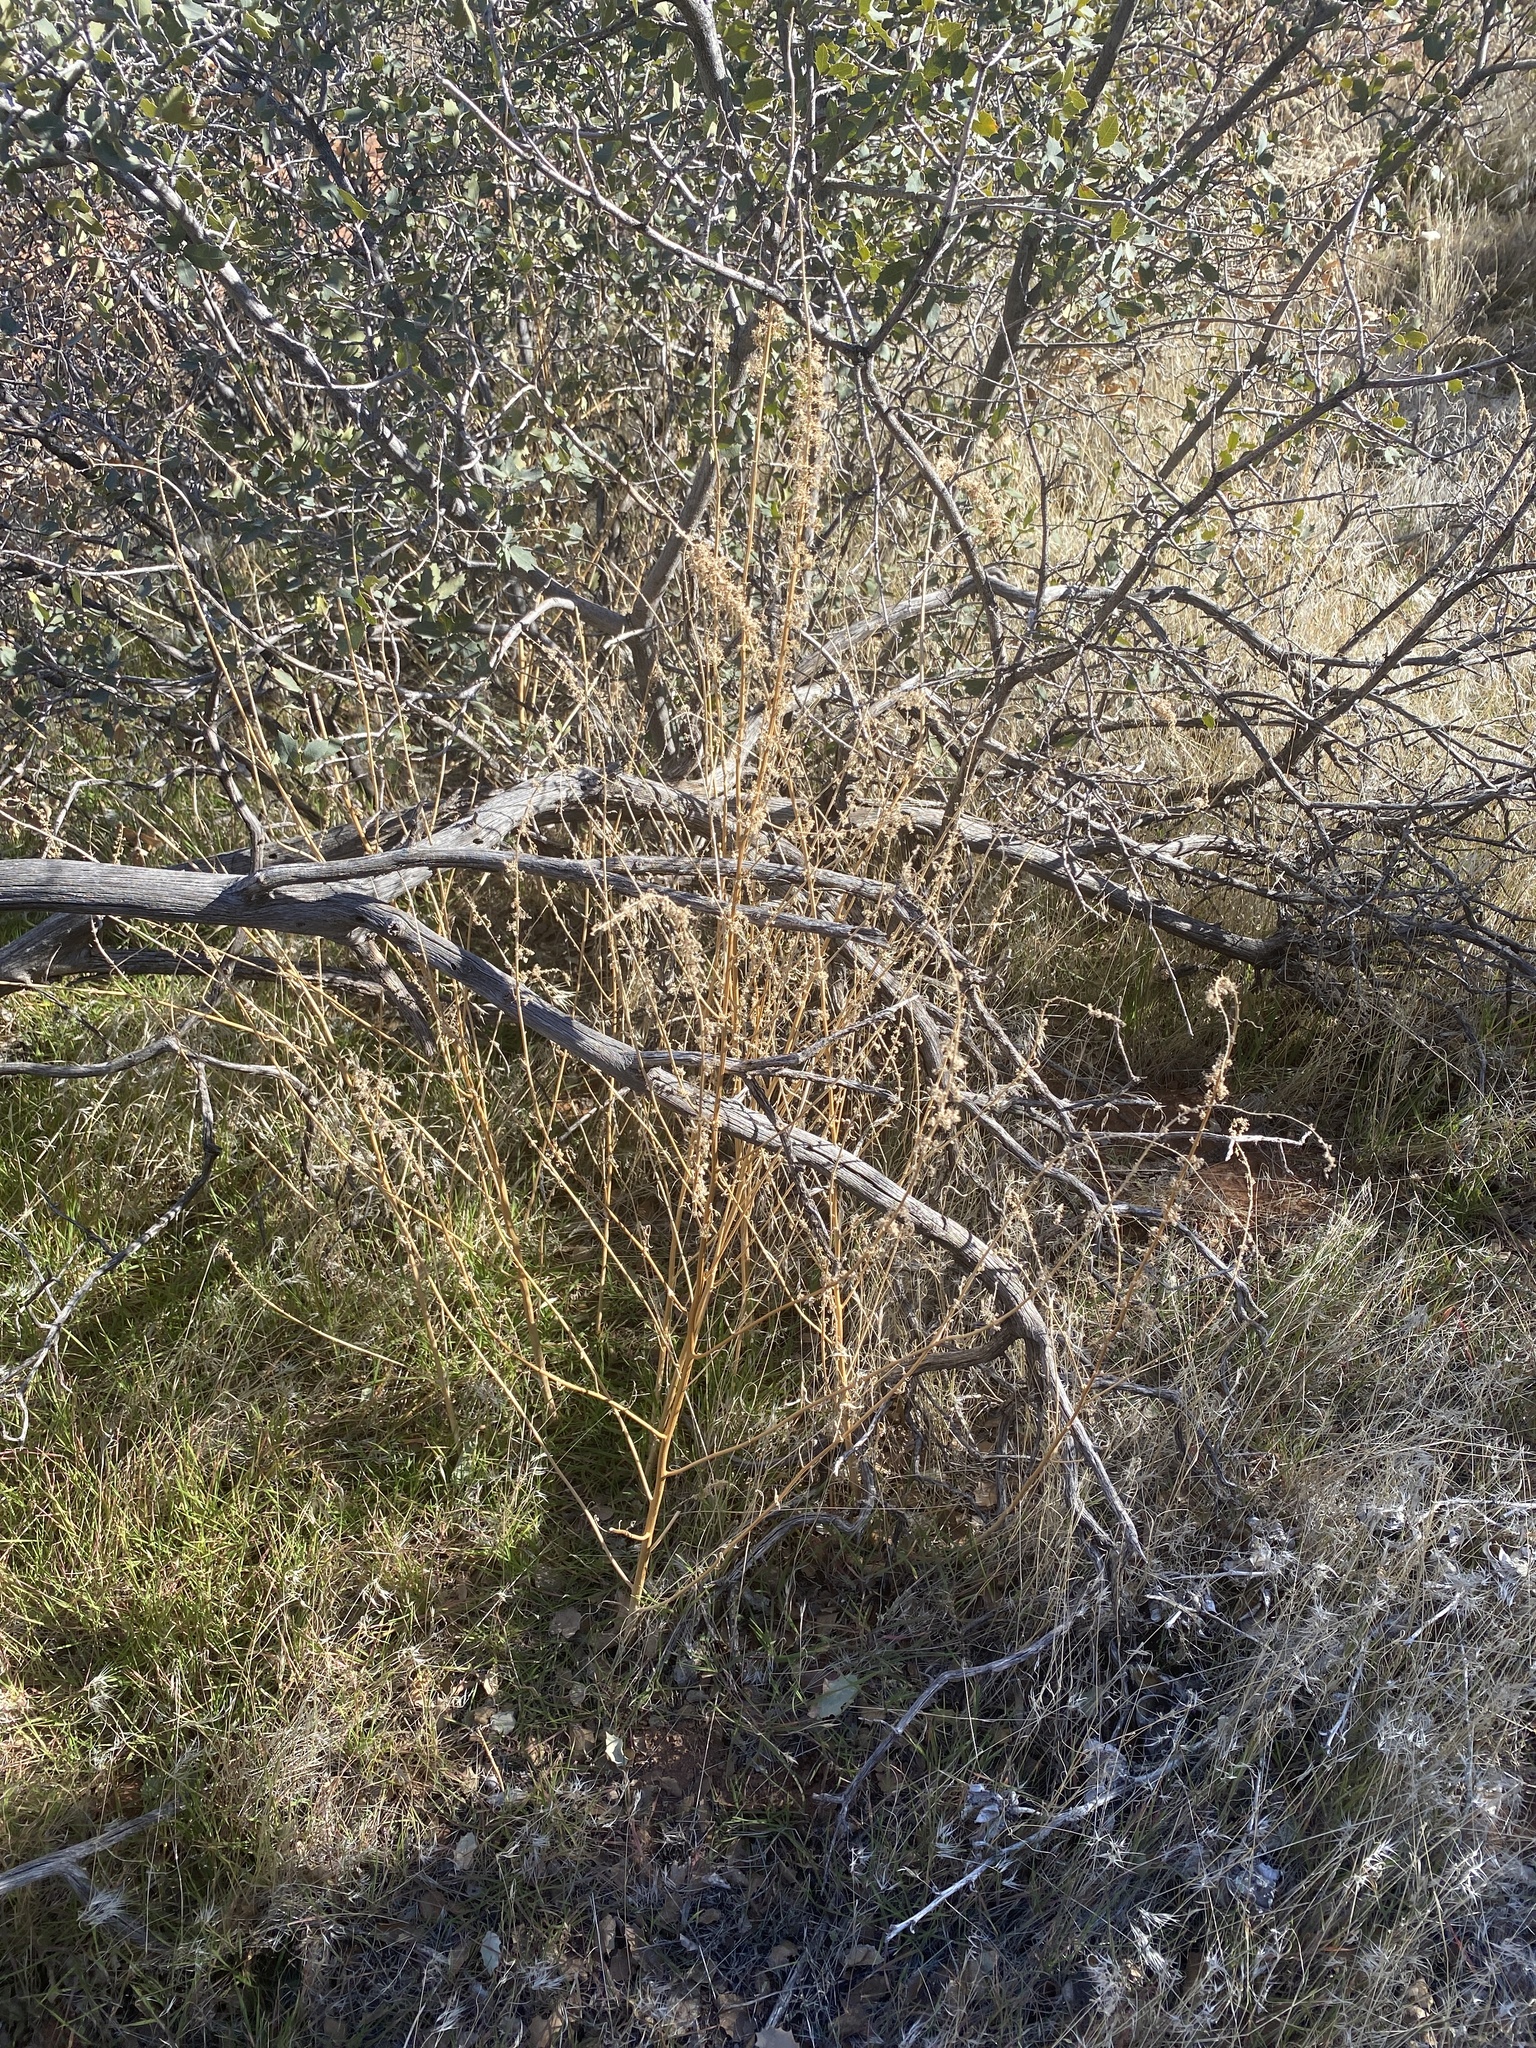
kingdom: Plantae
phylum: Tracheophyta
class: Magnoliopsida
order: Caryophyllales
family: Amaranthaceae
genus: Amaranthus
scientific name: Amaranthus fimbriatus
